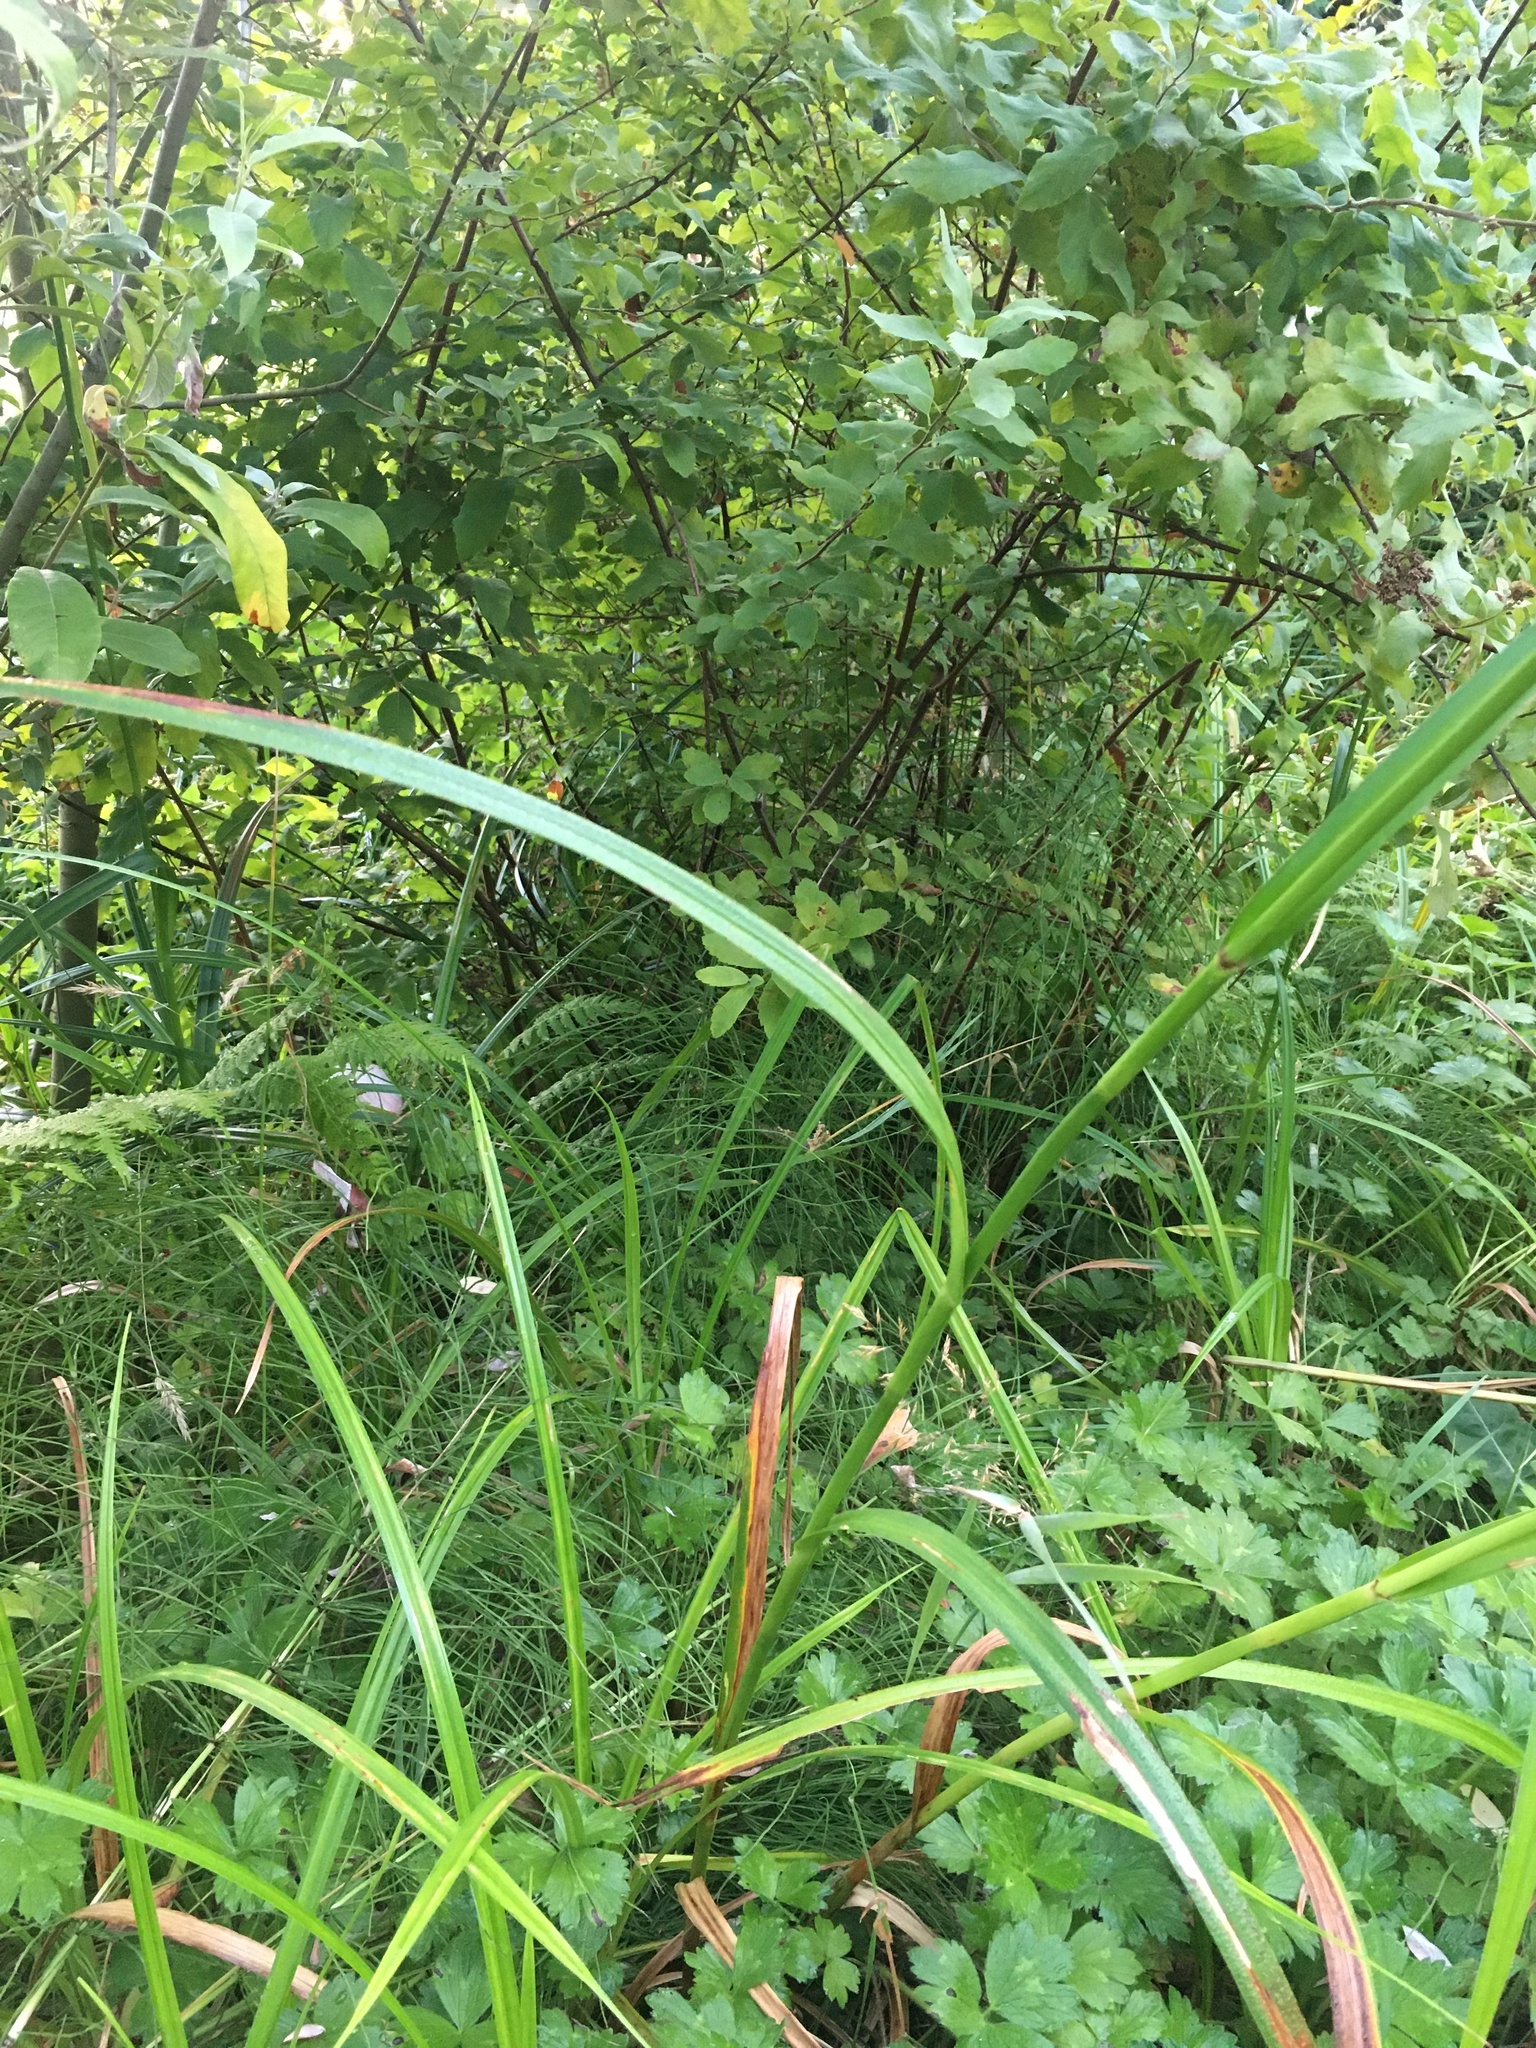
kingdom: Plantae
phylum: Tracheophyta
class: Liliopsida
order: Poales
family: Cyperaceae
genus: Scirpus
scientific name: Scirpus microcarpus
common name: Panicled bulrush
